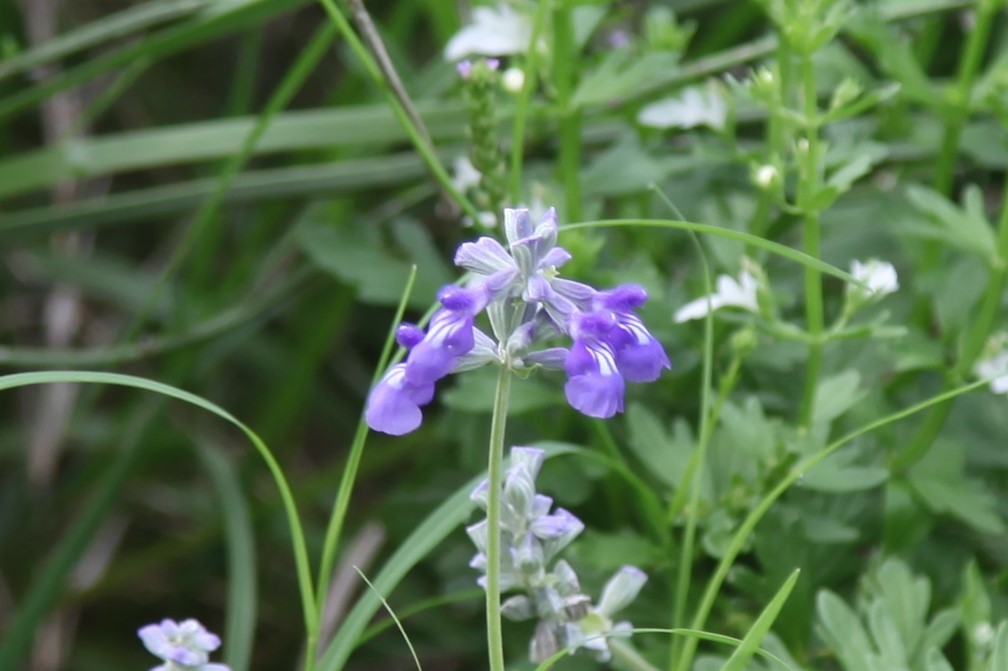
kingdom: Plantae
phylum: Tracheophyta
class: Magnoliopsida
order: Lamiales
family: Lamiaceae
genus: Salvia
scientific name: Salvia farinacea
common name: Mealy sage
